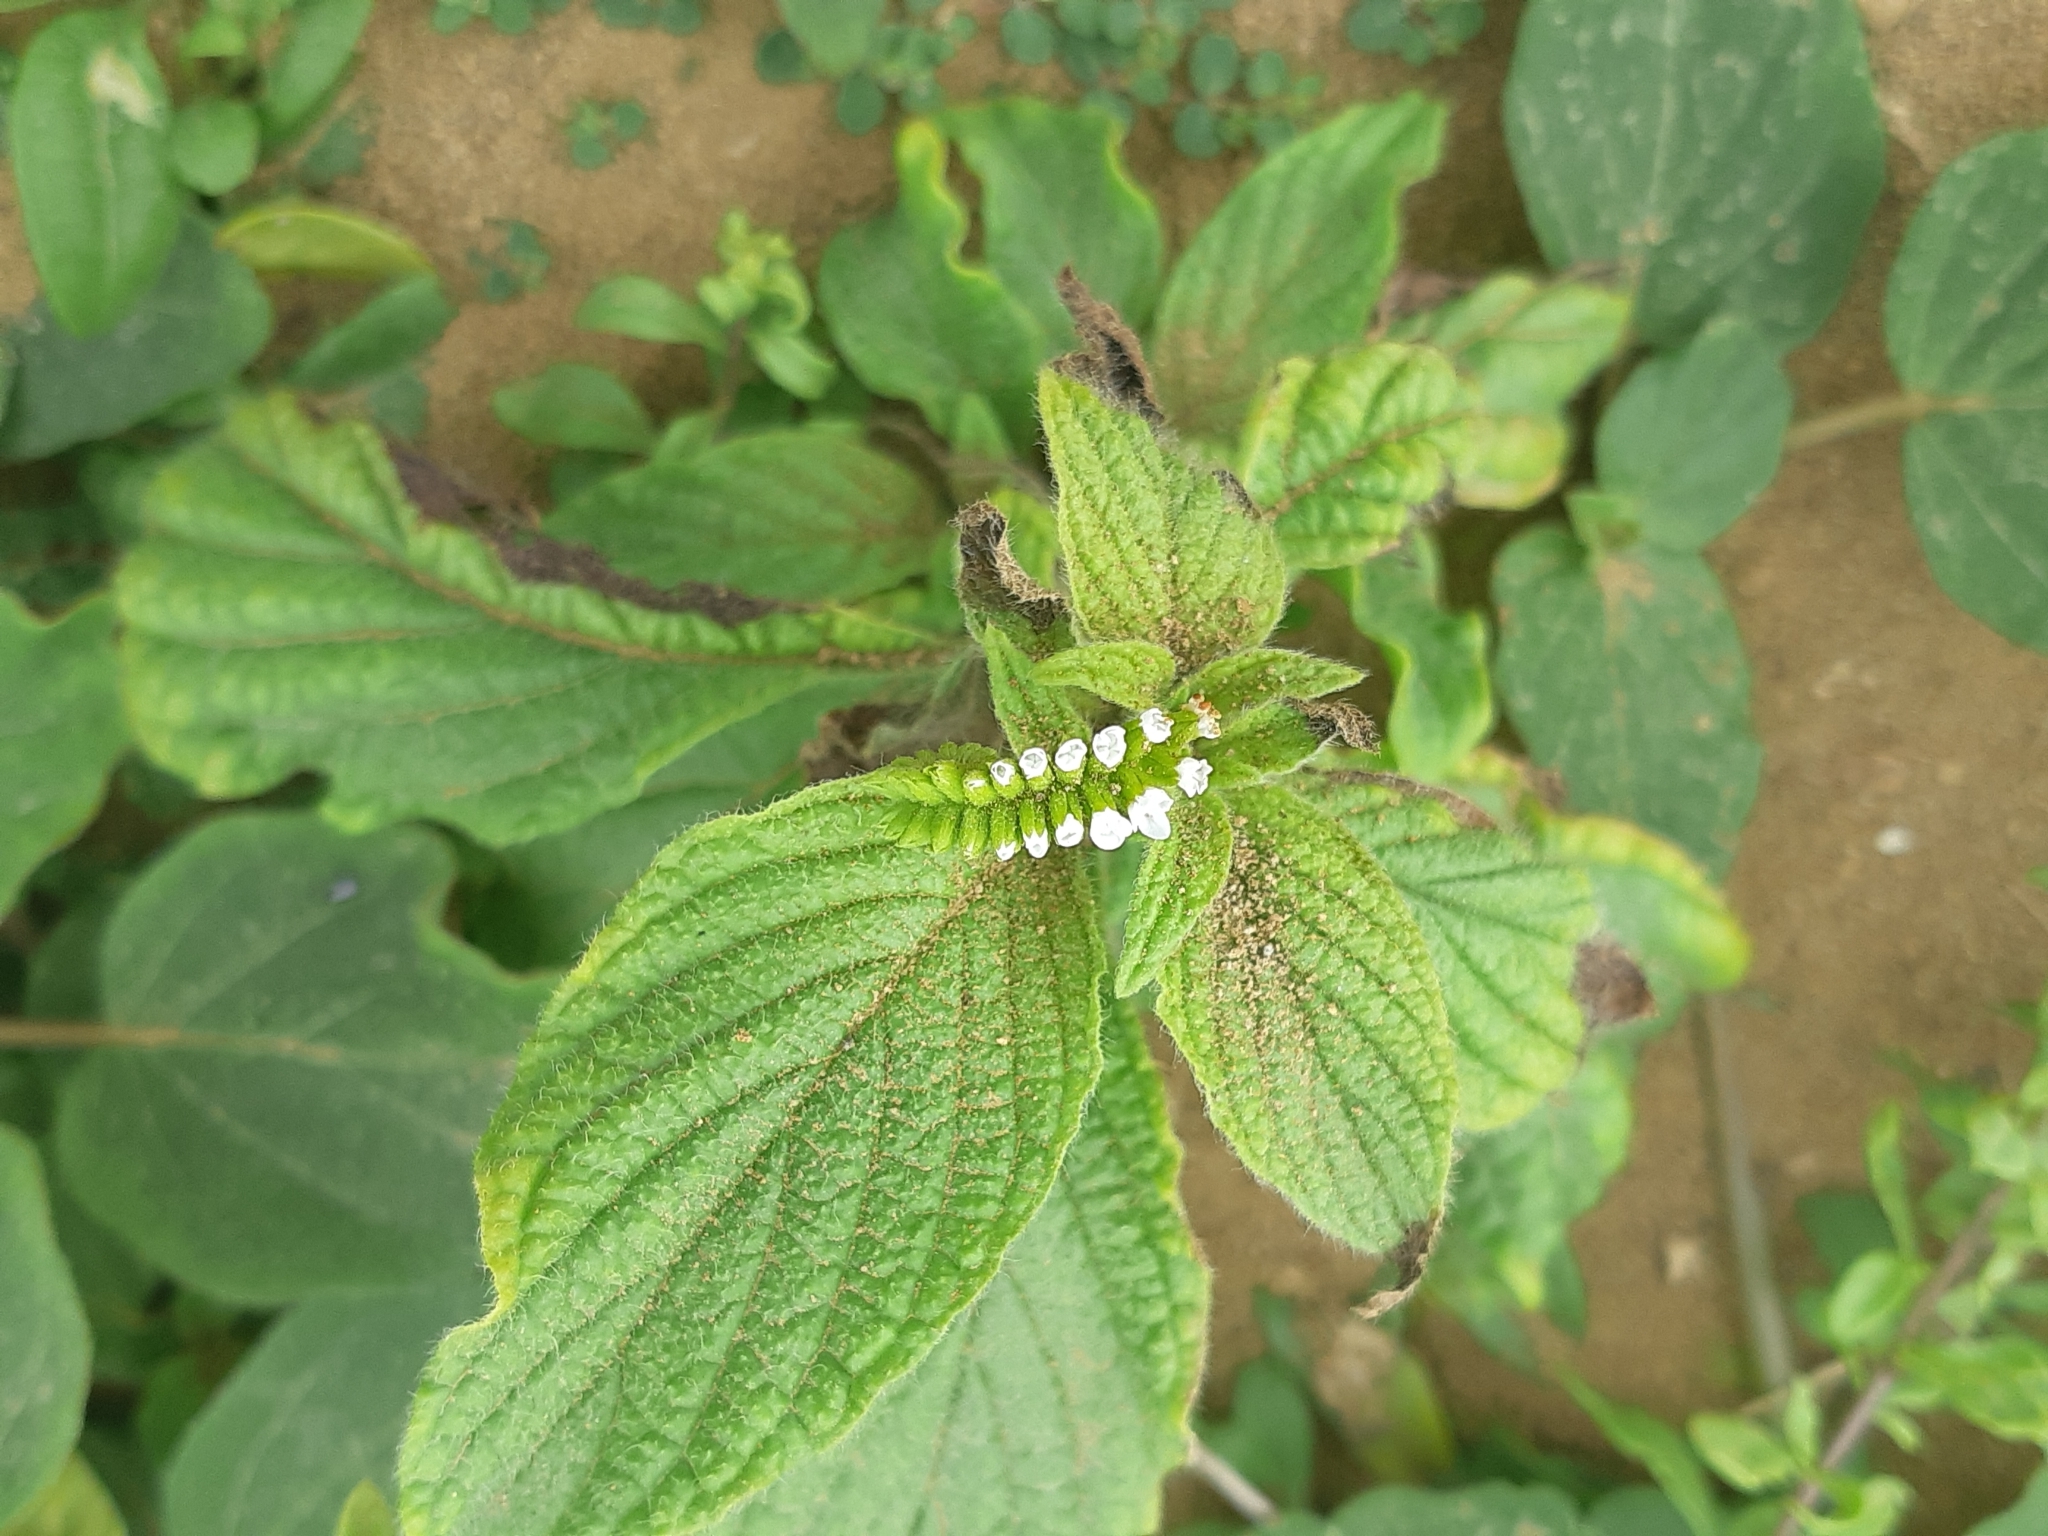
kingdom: Plantae
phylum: Tracheophyta
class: Magnoliopsida
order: Boraginales
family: Heliotropiaceae
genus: Heliotropium
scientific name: Heliotropium angiospermum
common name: Eye bright
